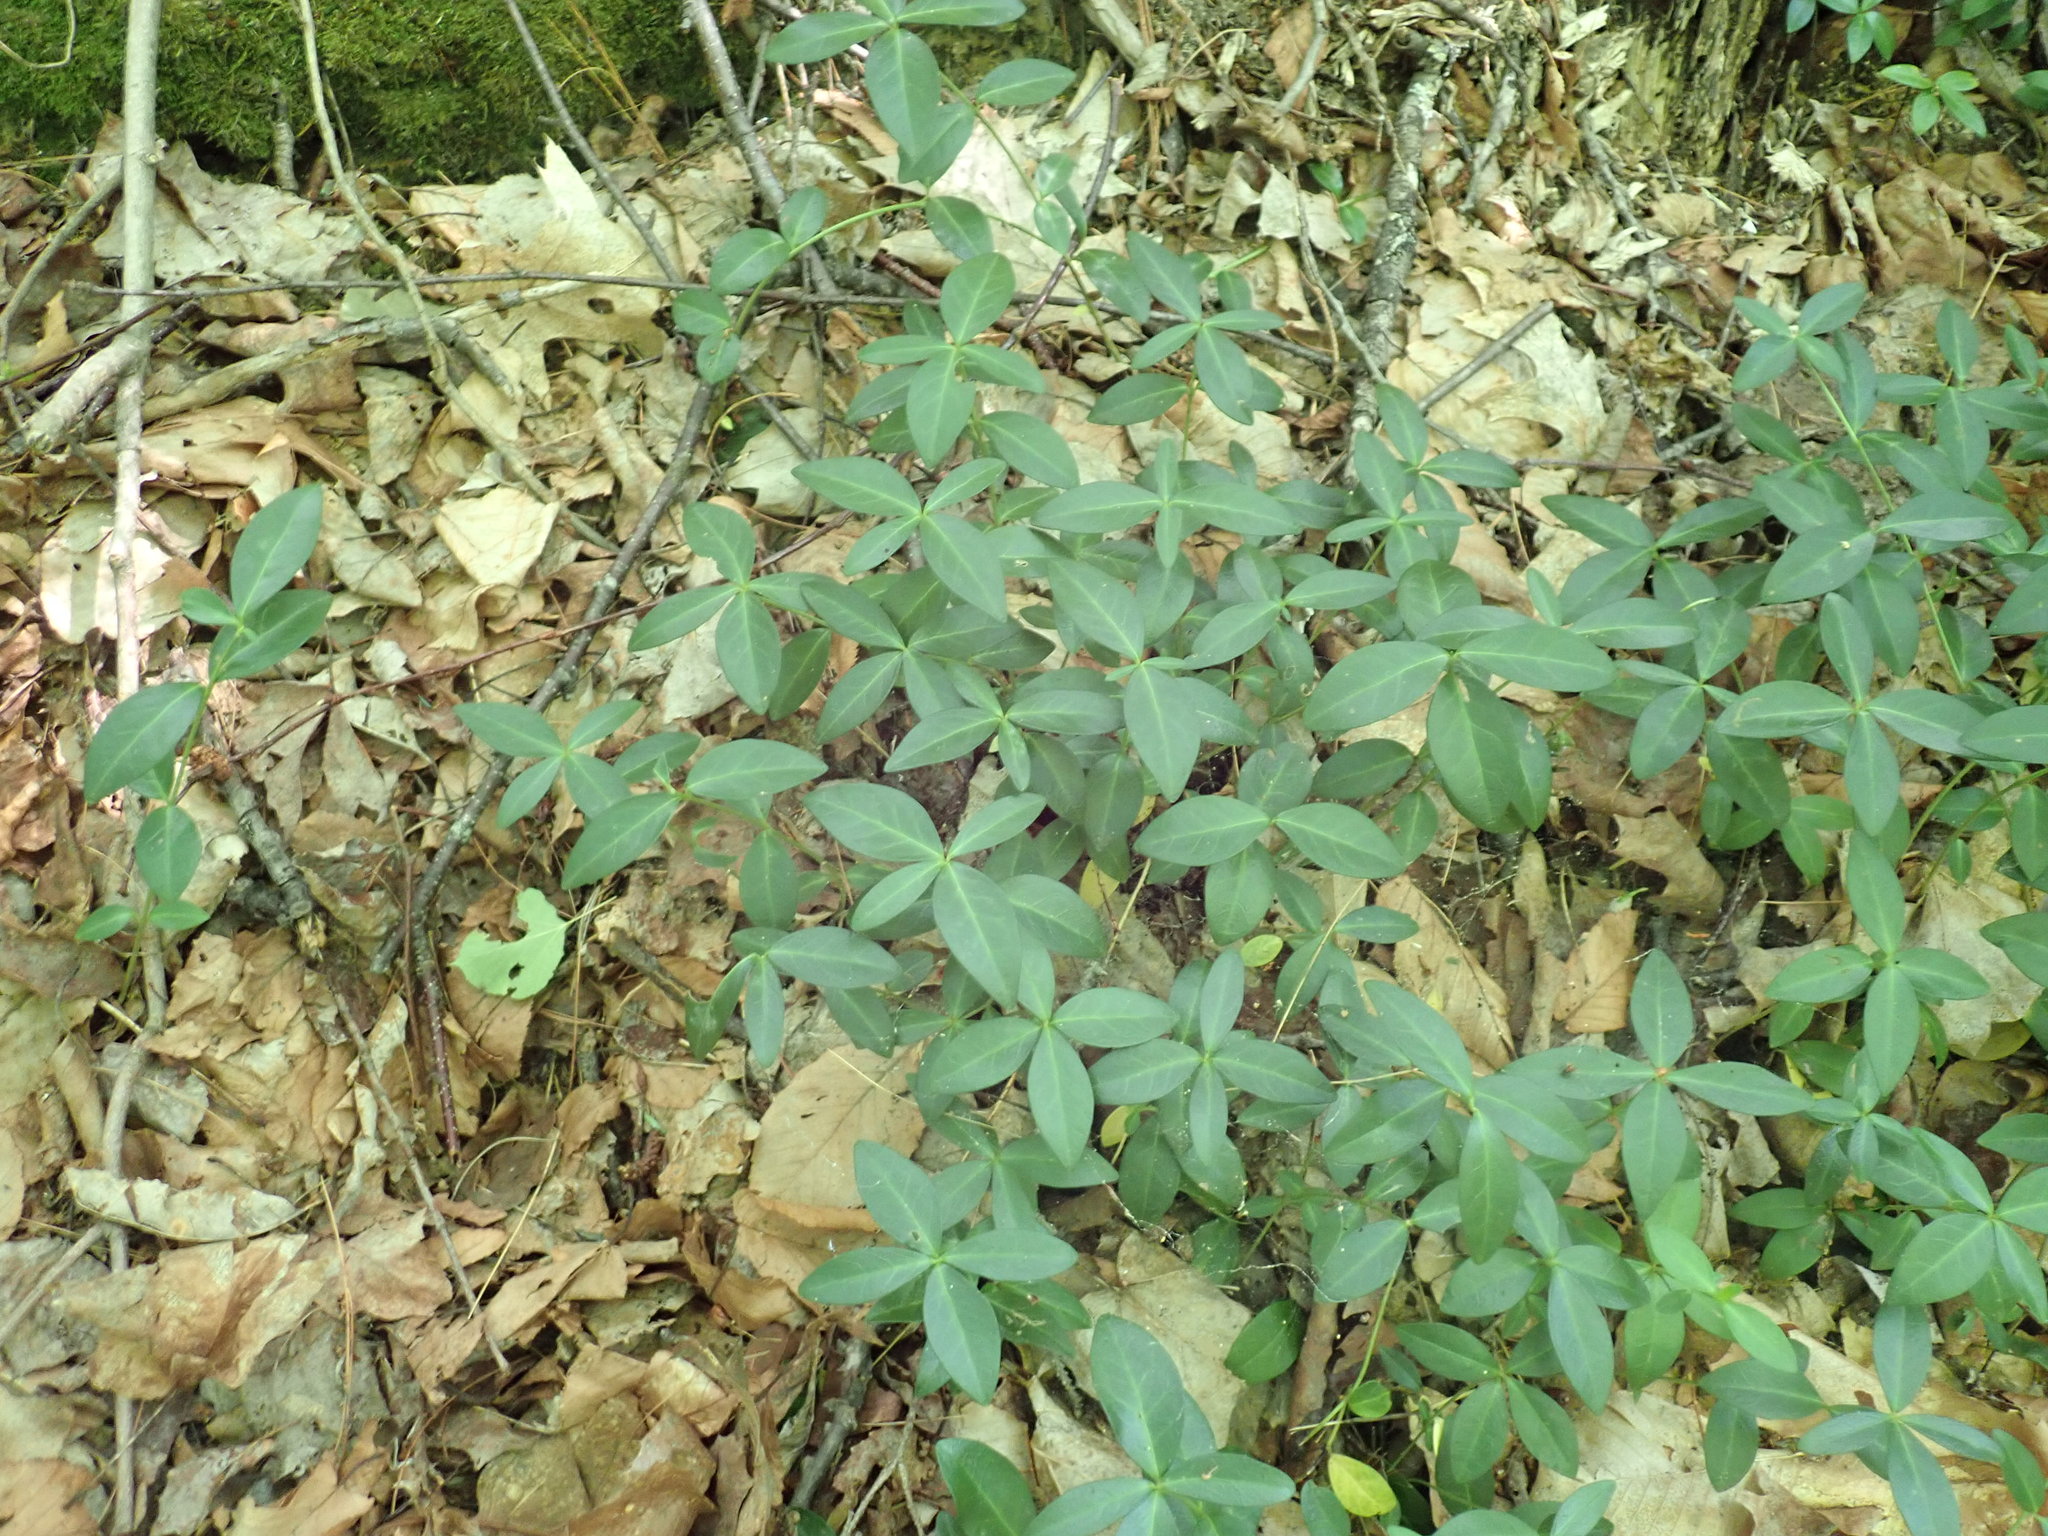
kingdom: Plantae
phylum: Tracheophyta
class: Magnoliopsida
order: Gentianales
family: Apocynaceae
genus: Vinca
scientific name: Vinca minor
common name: Lesser periwinkle
